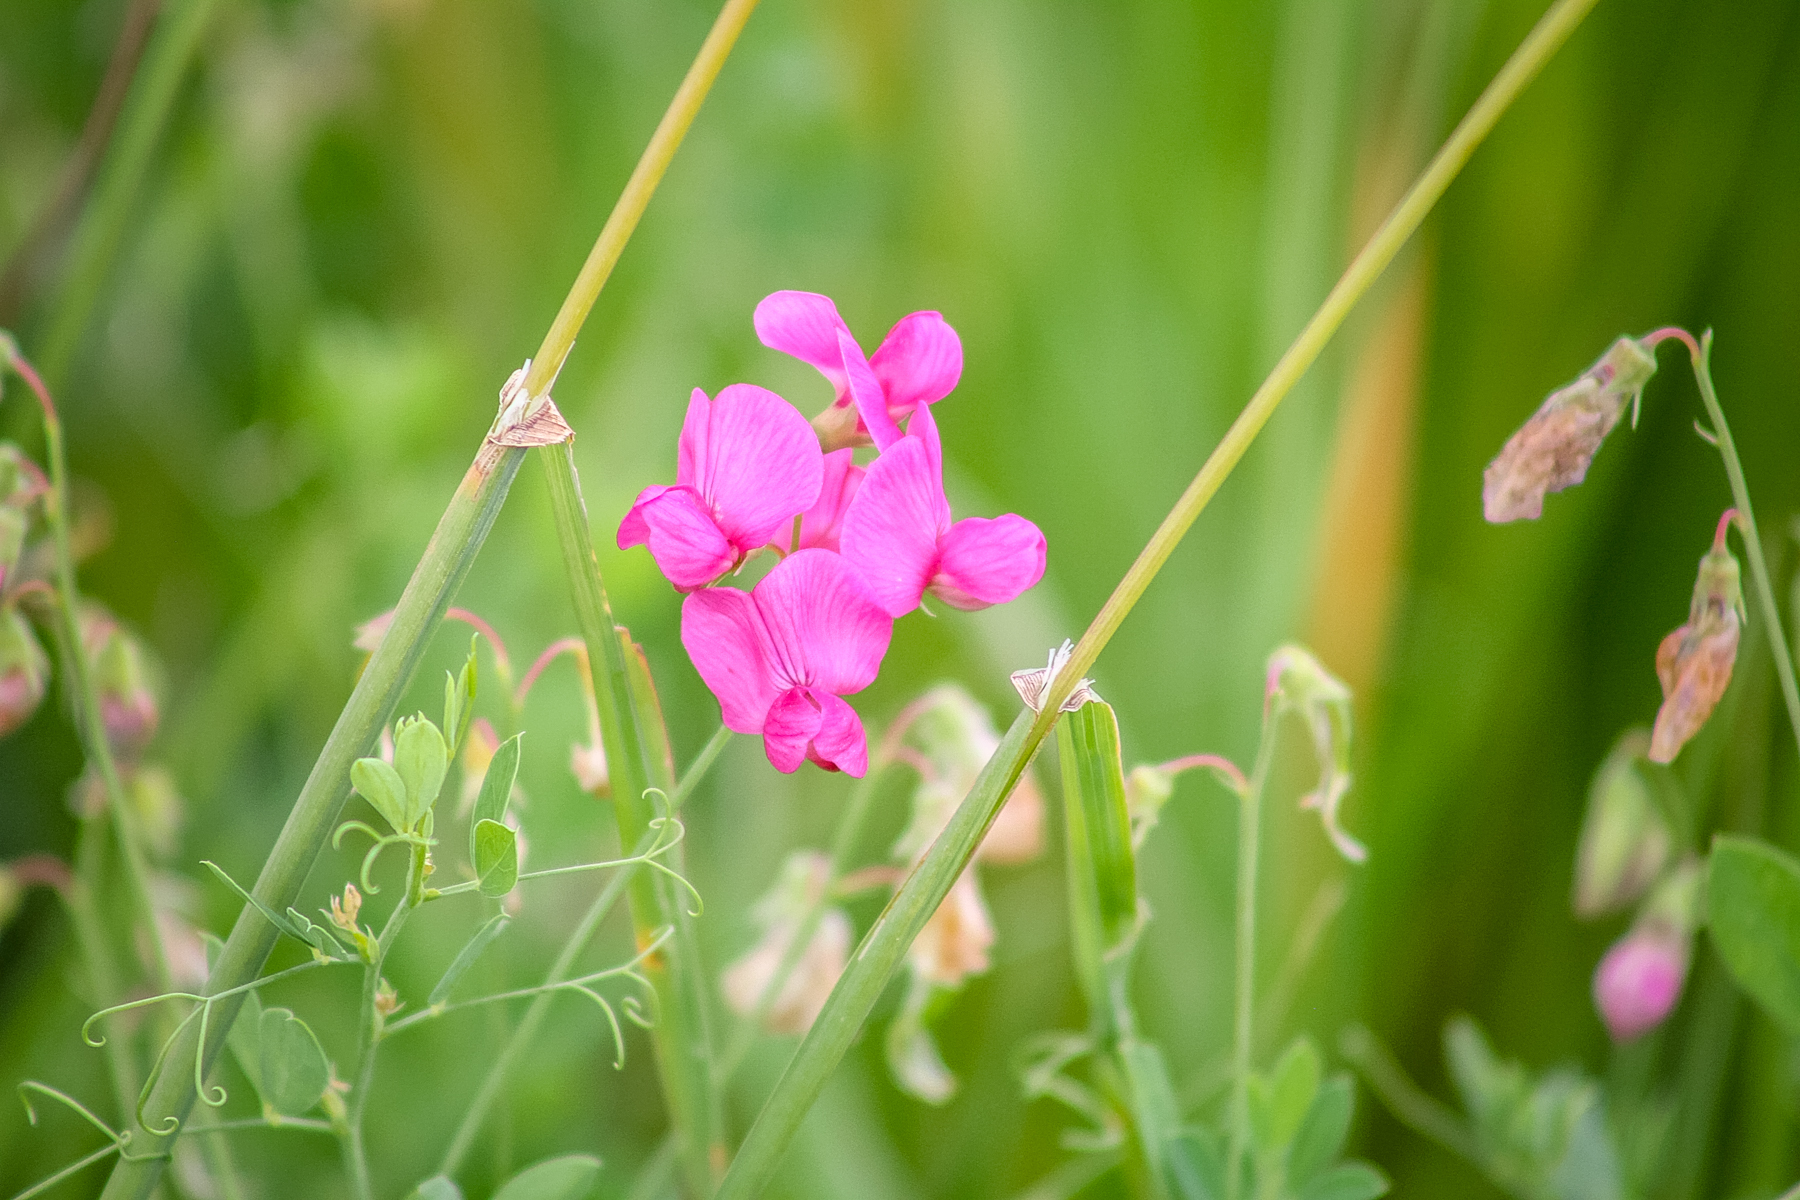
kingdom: Plantae
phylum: Tracheophyta
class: Magnoliopsida
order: Fabales
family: Fabaceae
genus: Lathyrus
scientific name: Lathyrus tuberosus
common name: Tuberous pea
